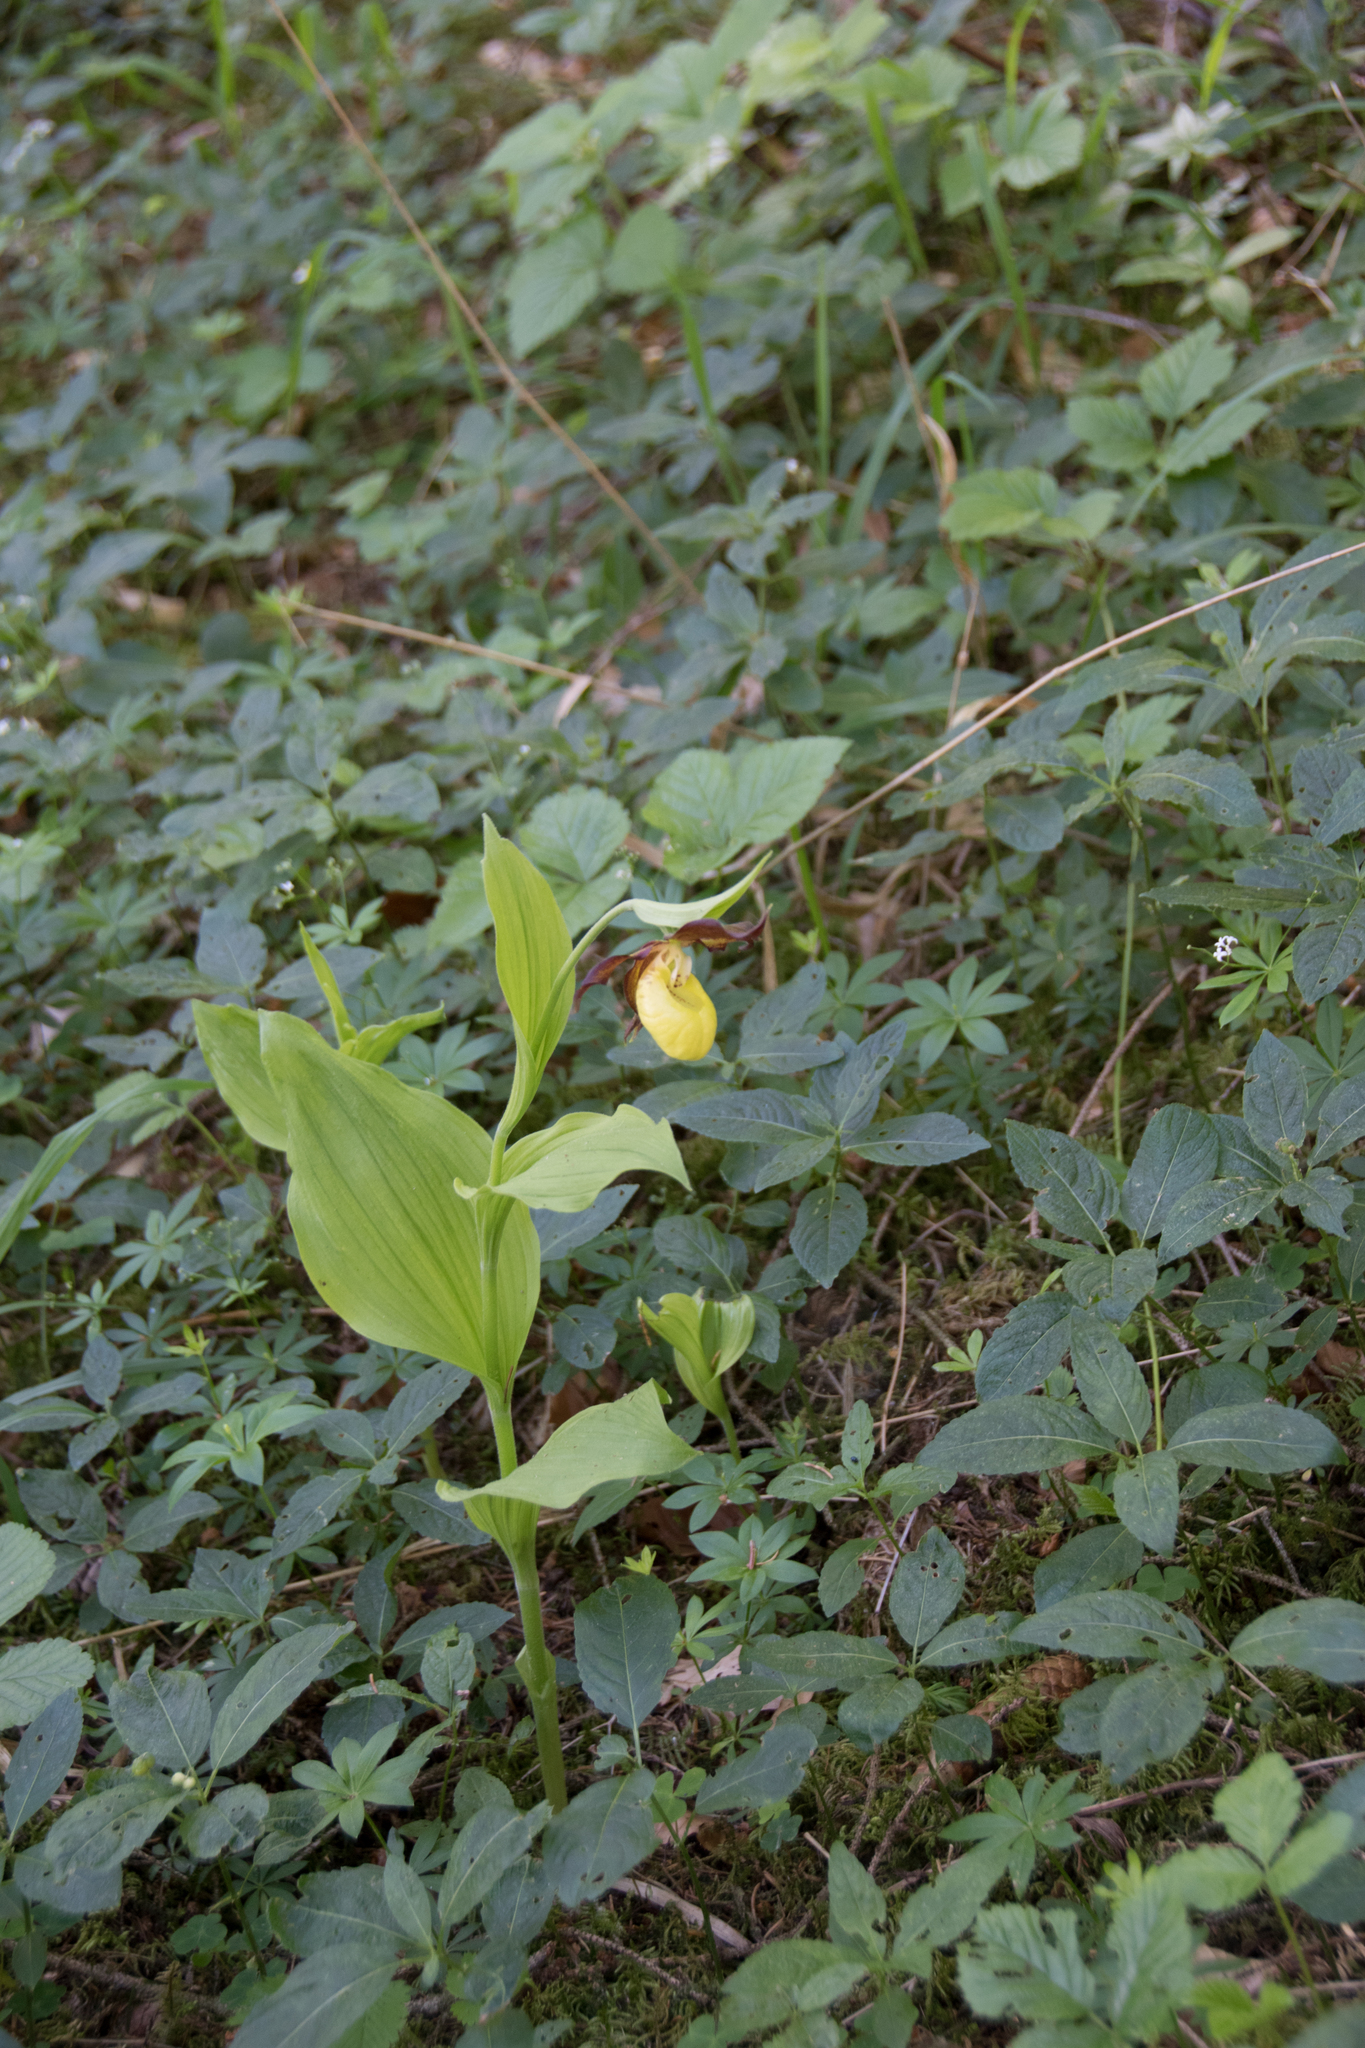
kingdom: Plantae
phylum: Tracheophyta
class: Liliopsida
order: Asparagales
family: Orchidaceae
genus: Cypripedium
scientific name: Cypripedium calceolus
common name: Lady's-slipper
